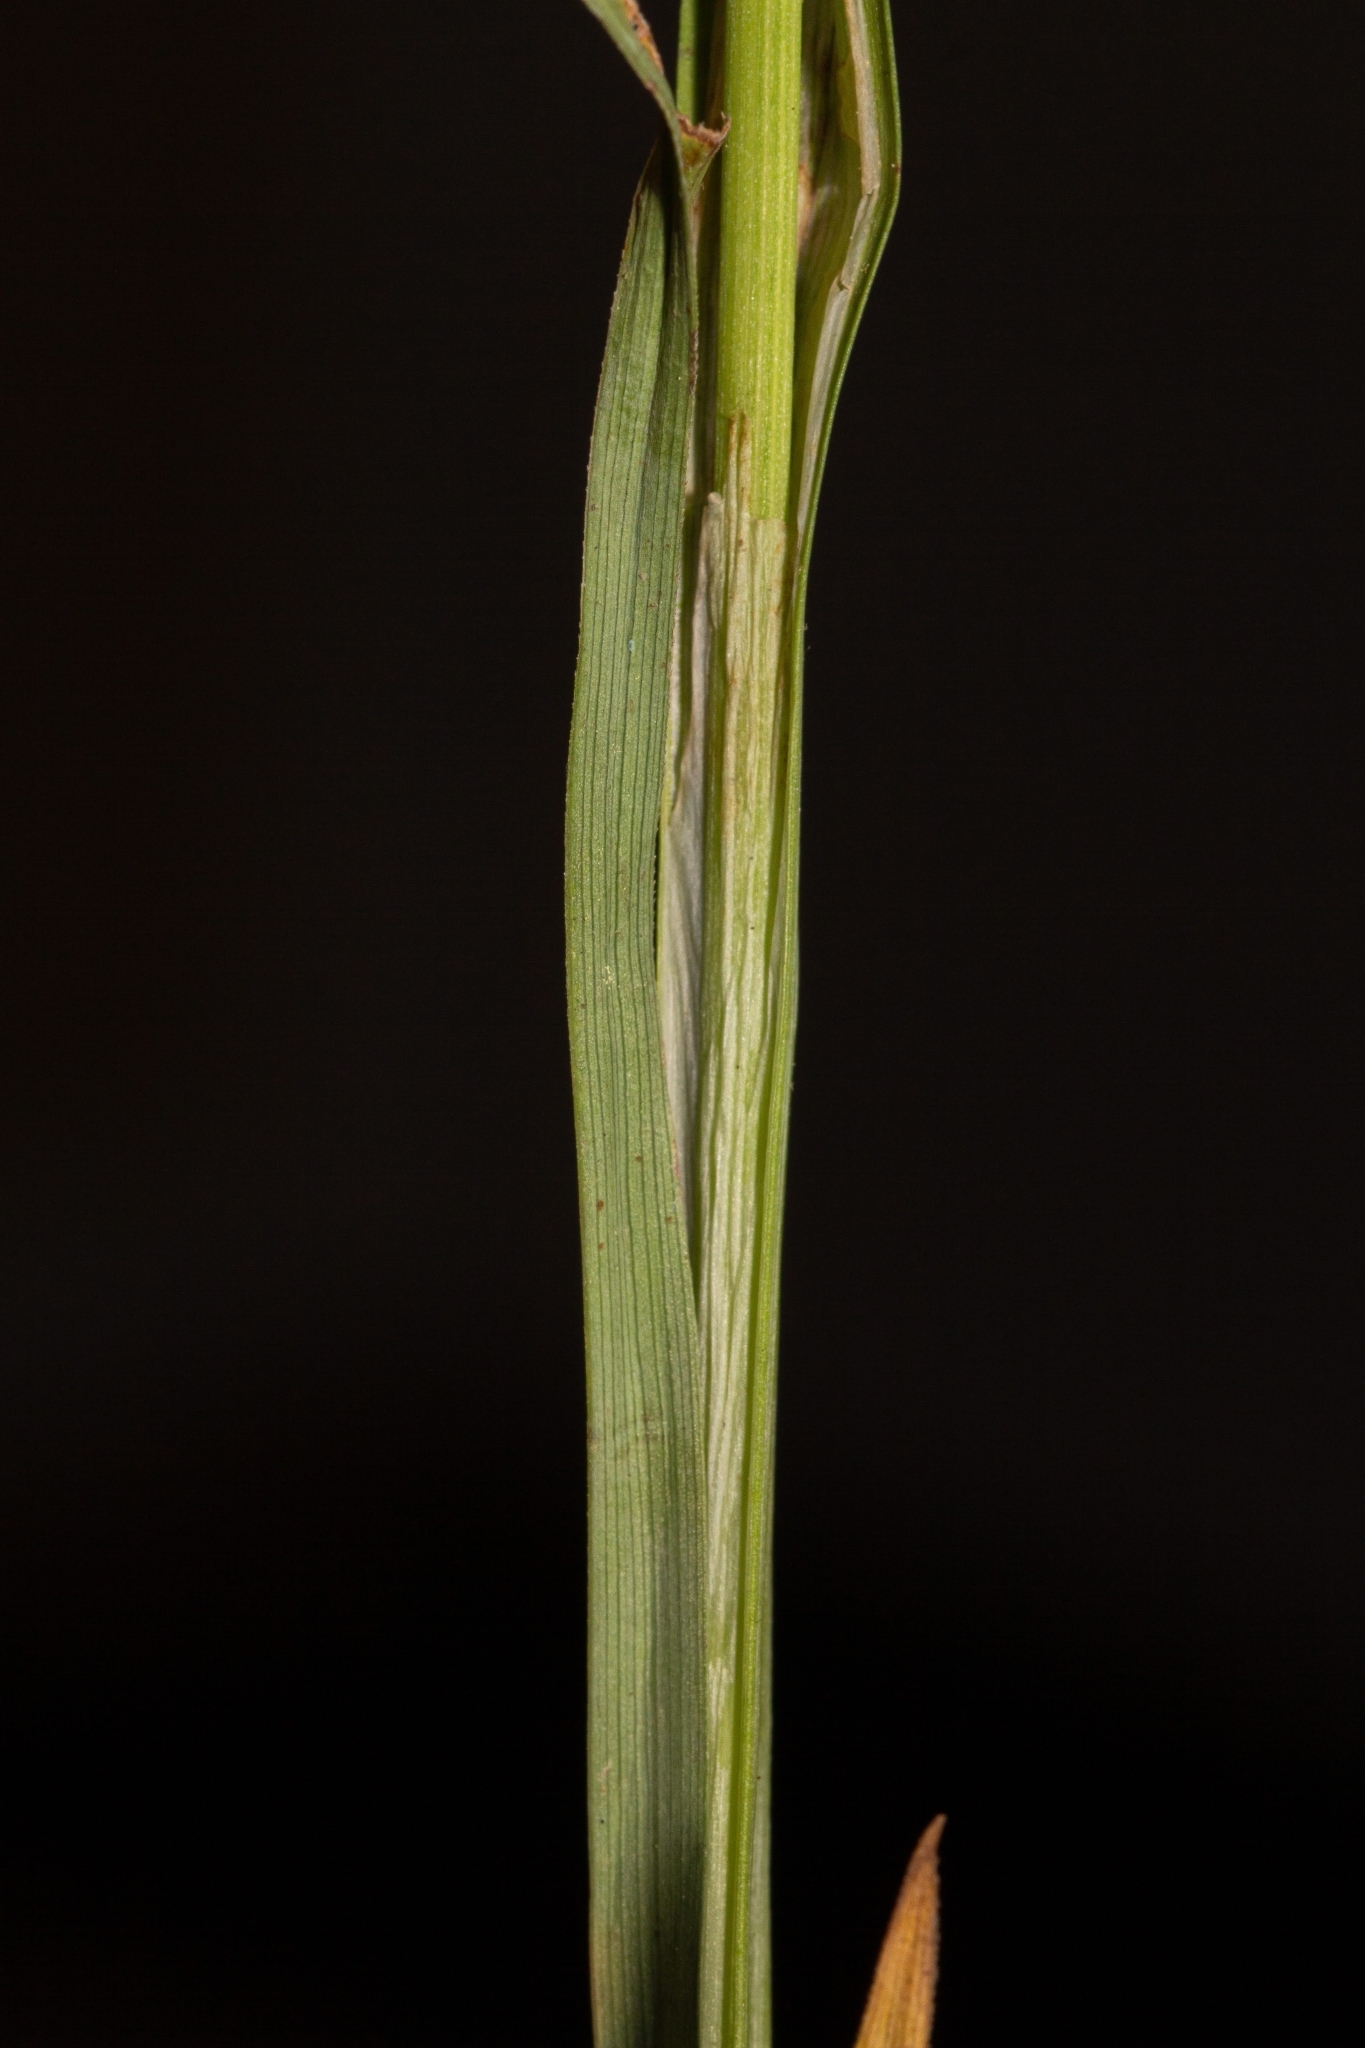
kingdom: Plantae
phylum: Tracheophyta
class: Liliopsida
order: Poales
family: Cyperaceae
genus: Carex
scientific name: Carex granularis
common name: Granular sedge
